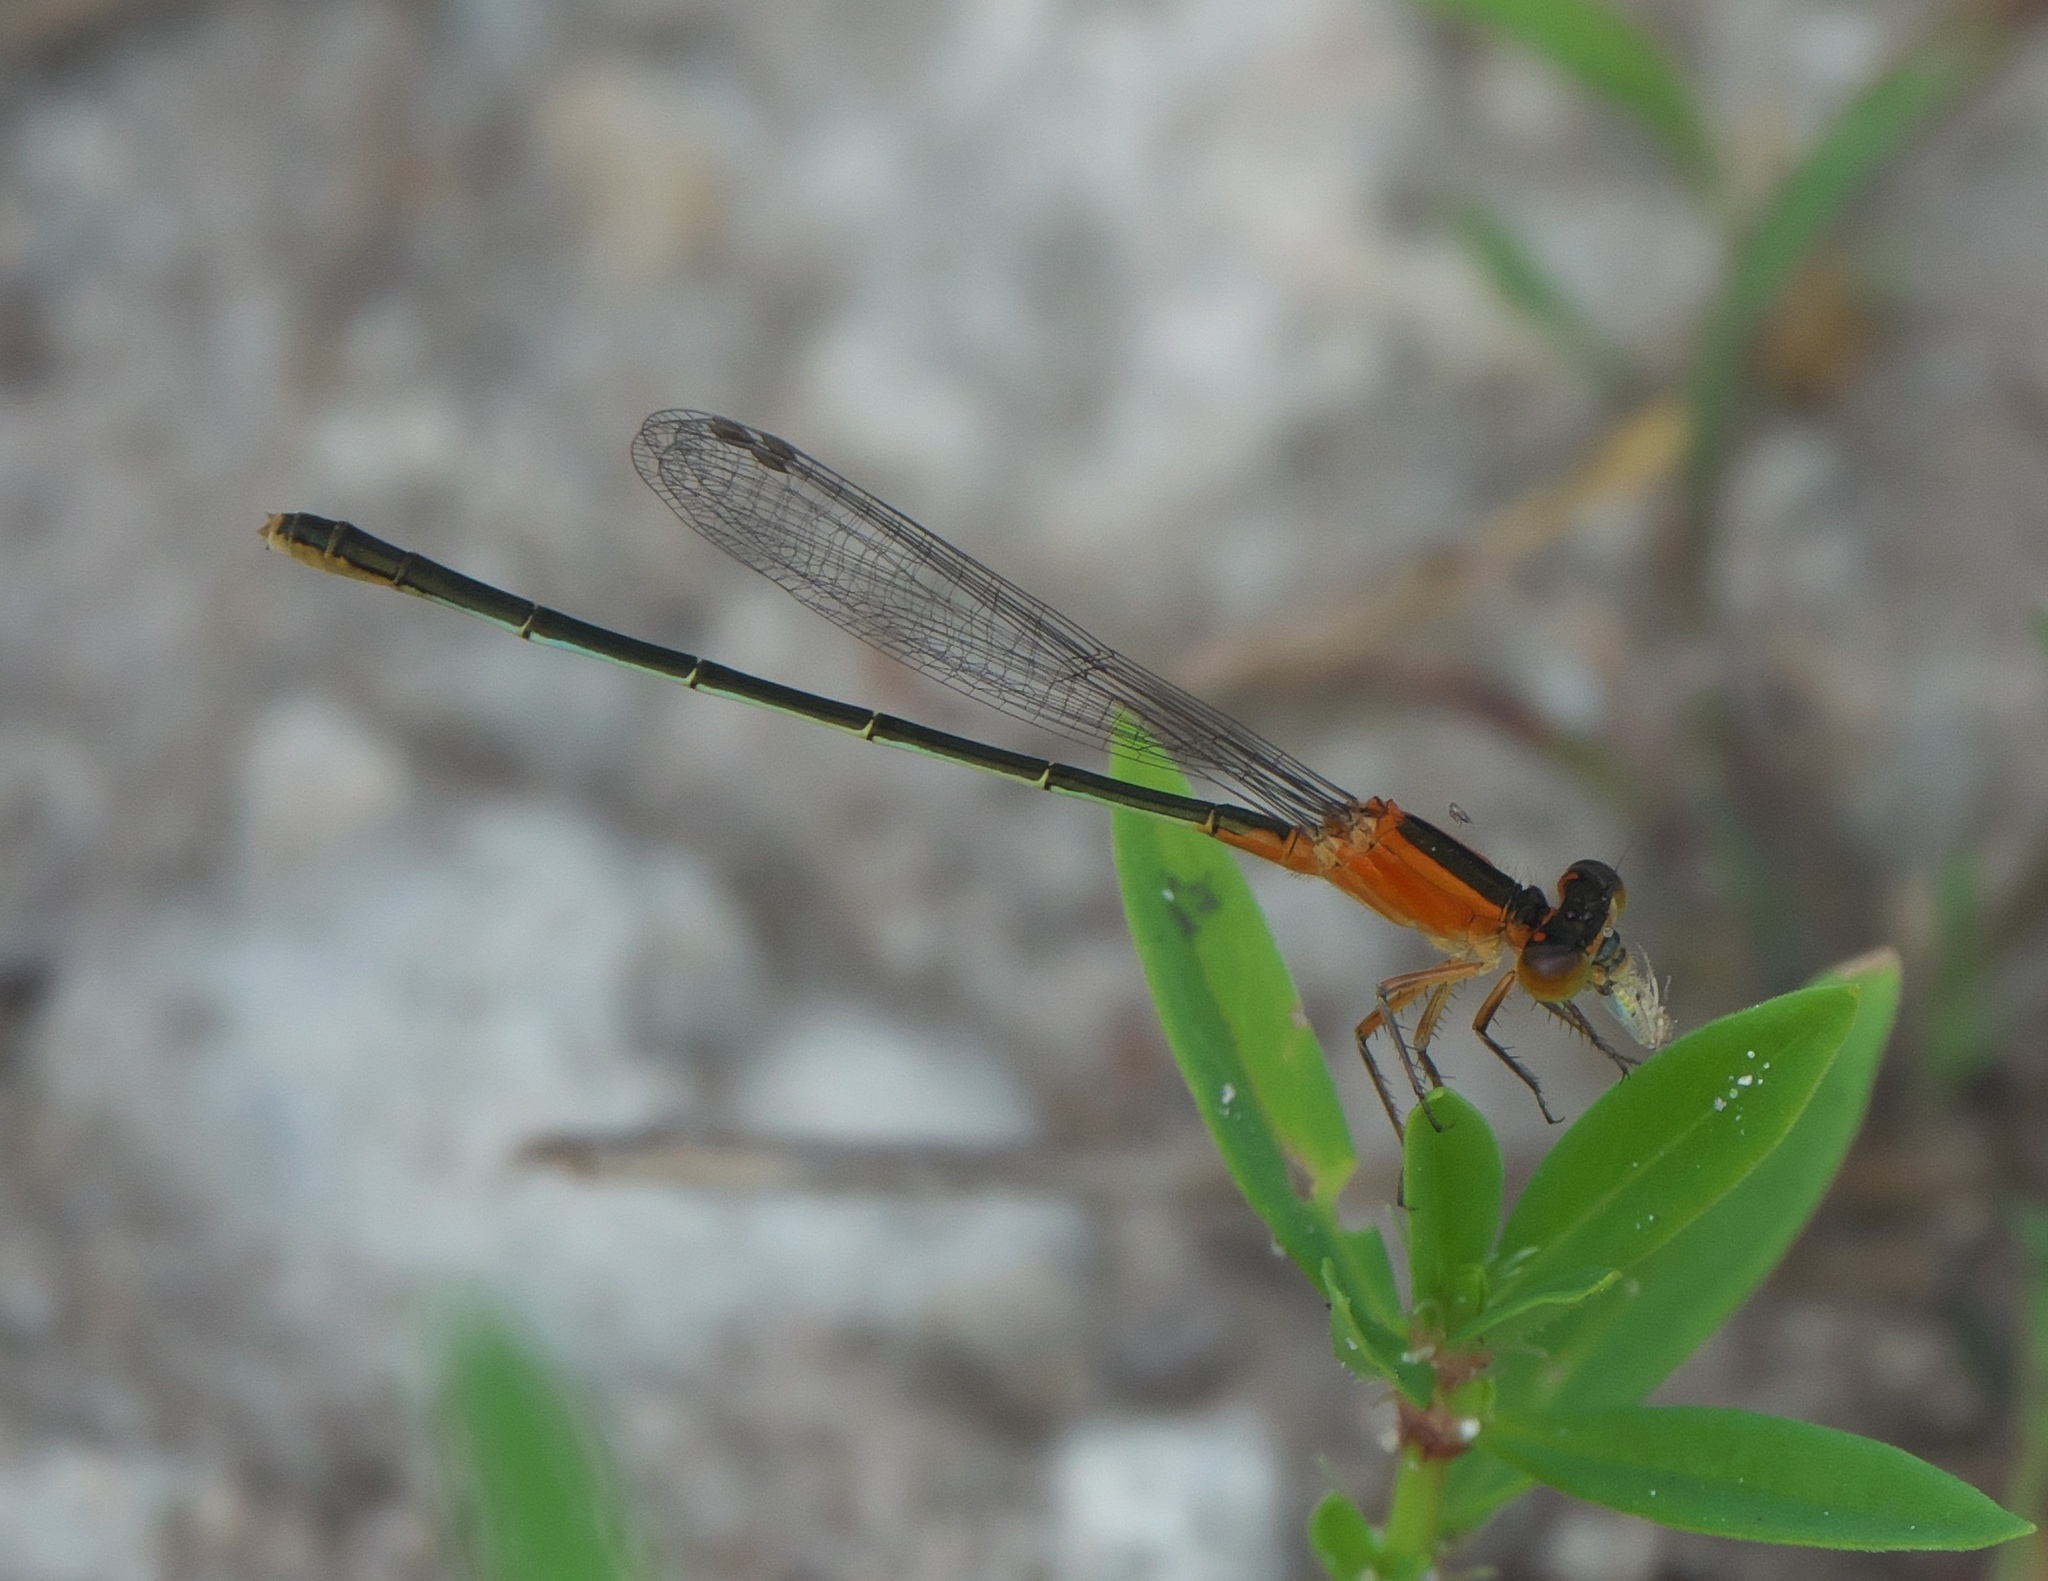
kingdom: Animalia
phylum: Arthropoda
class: Insecta
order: Odonata
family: Coenagrionidae
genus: Ischnura
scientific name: Ischnura ramburii
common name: Rambur's forktail
